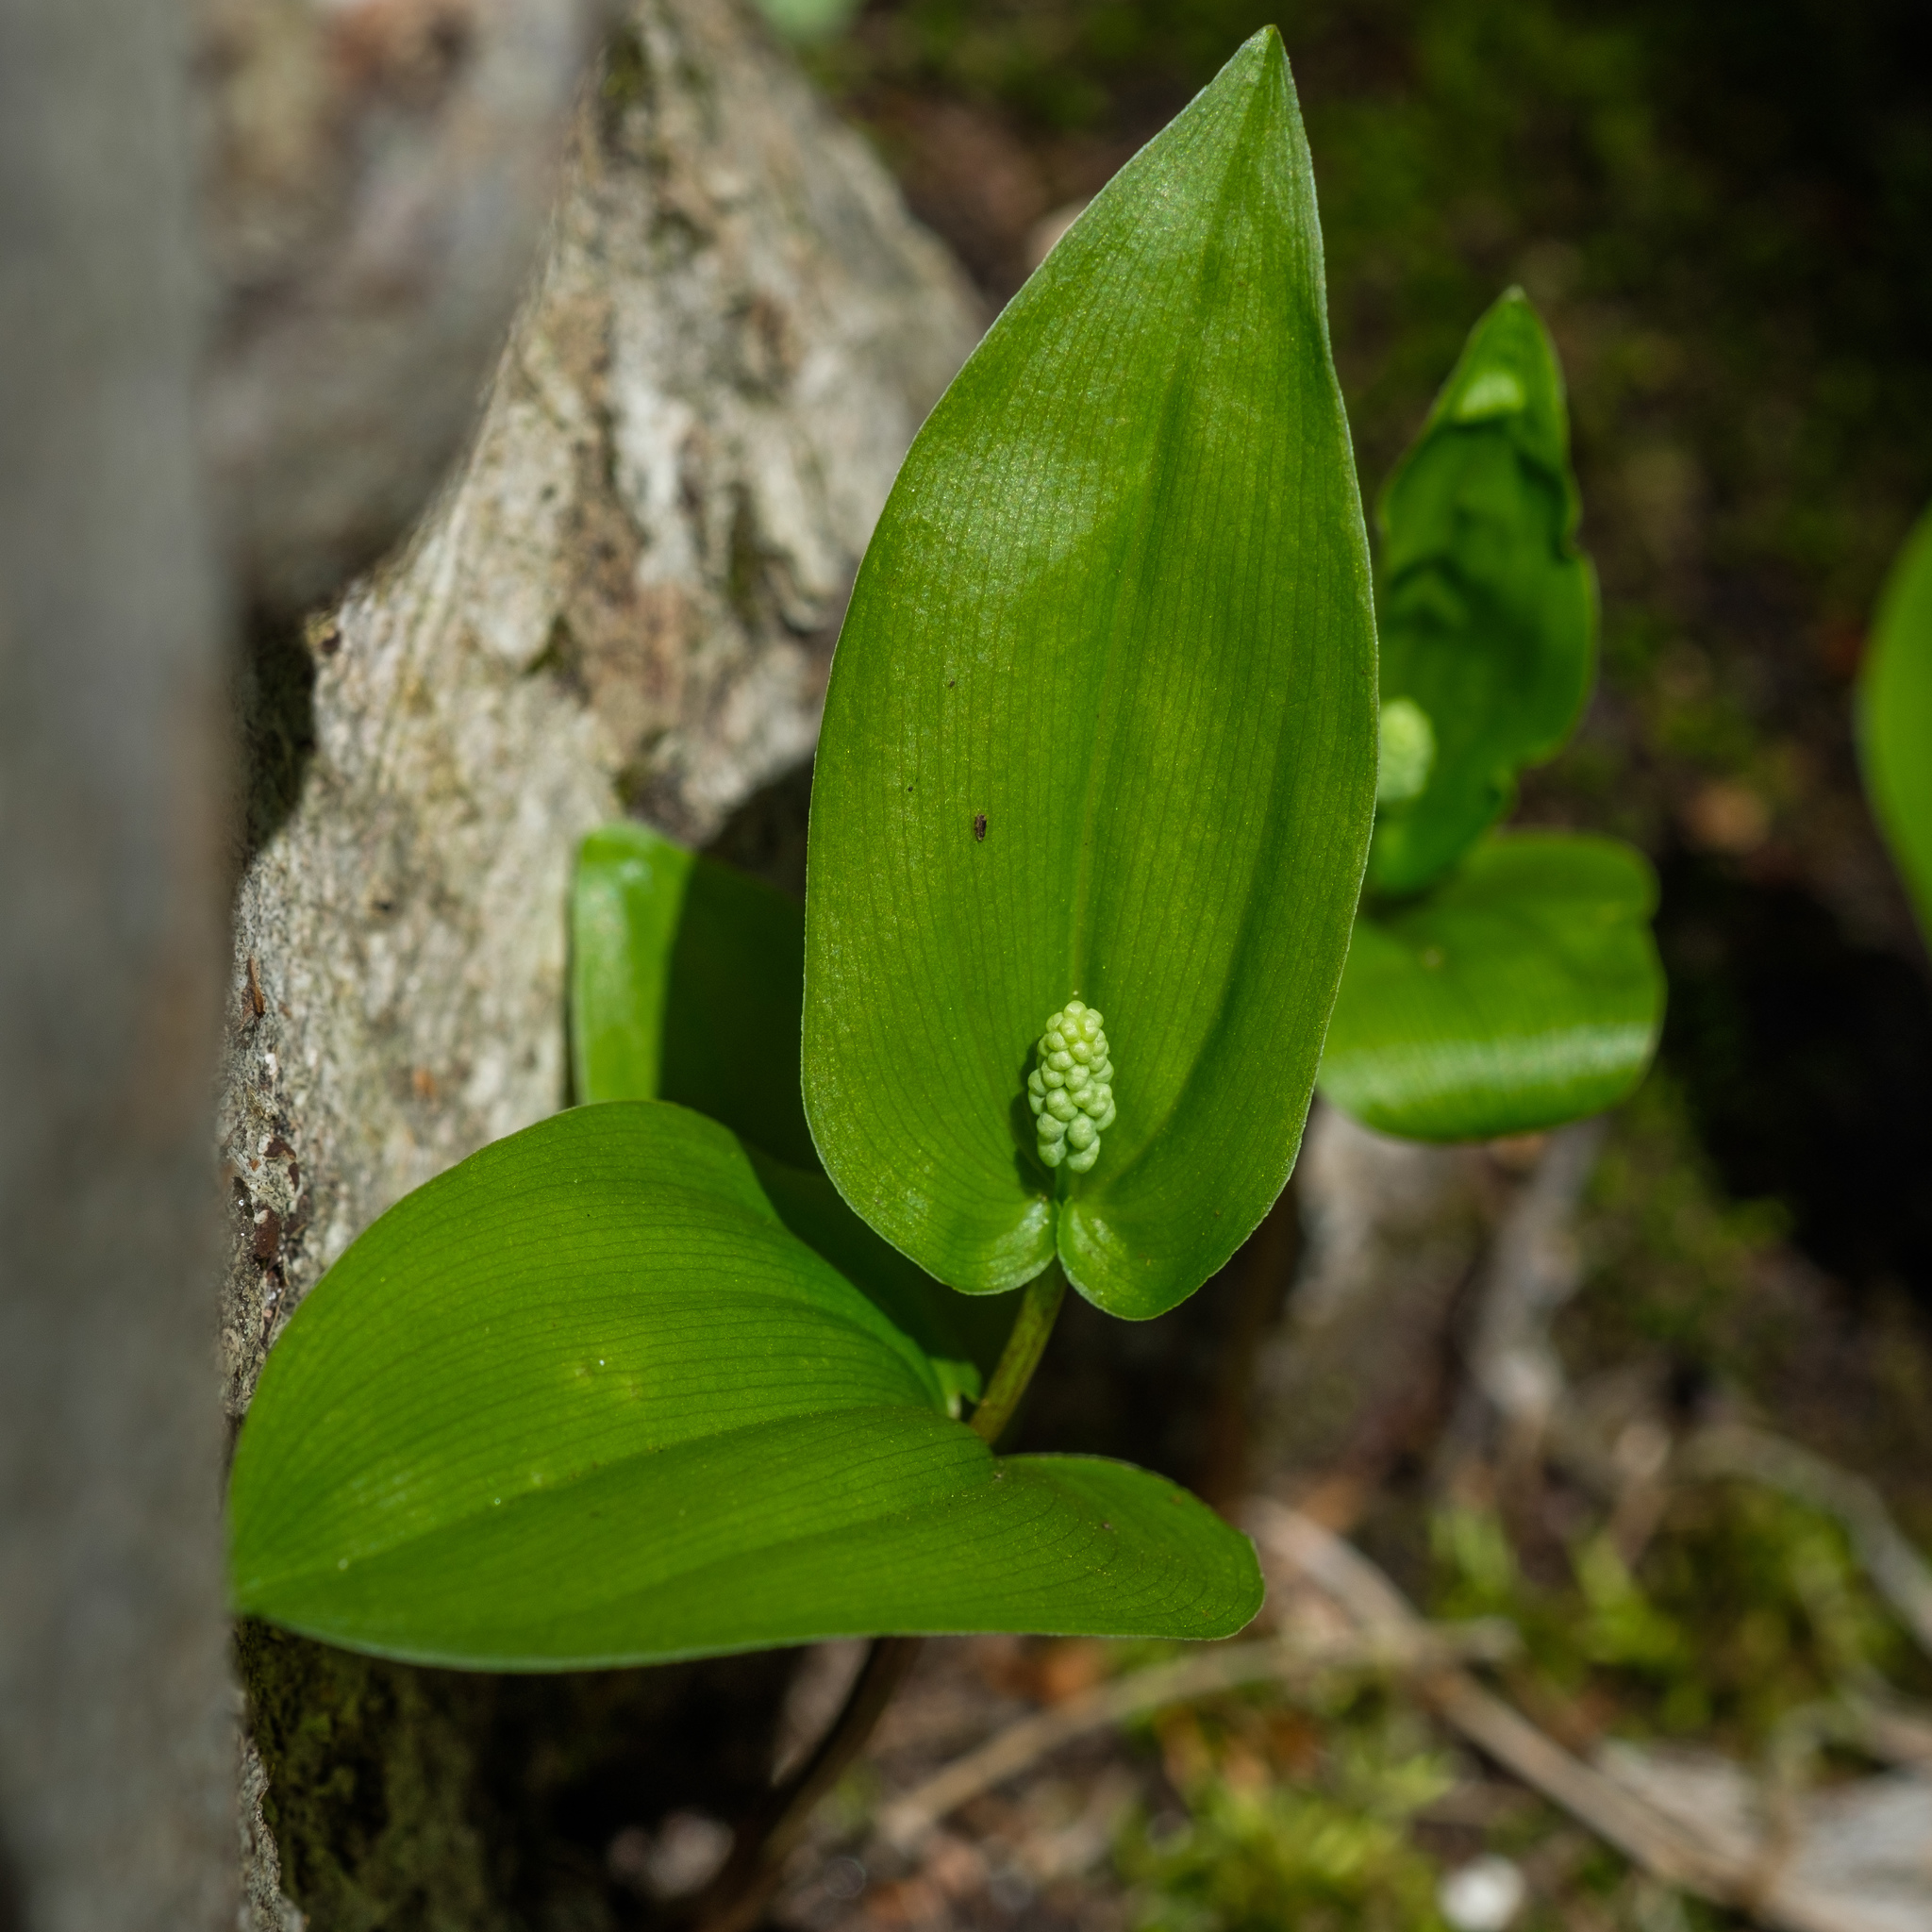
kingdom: Plantae
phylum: Tracheophyta
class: Liliopsida
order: Asparagales
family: Asparagaceae
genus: Maianthemum
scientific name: Maianthemum canadense
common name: False lily-of-the-valley
